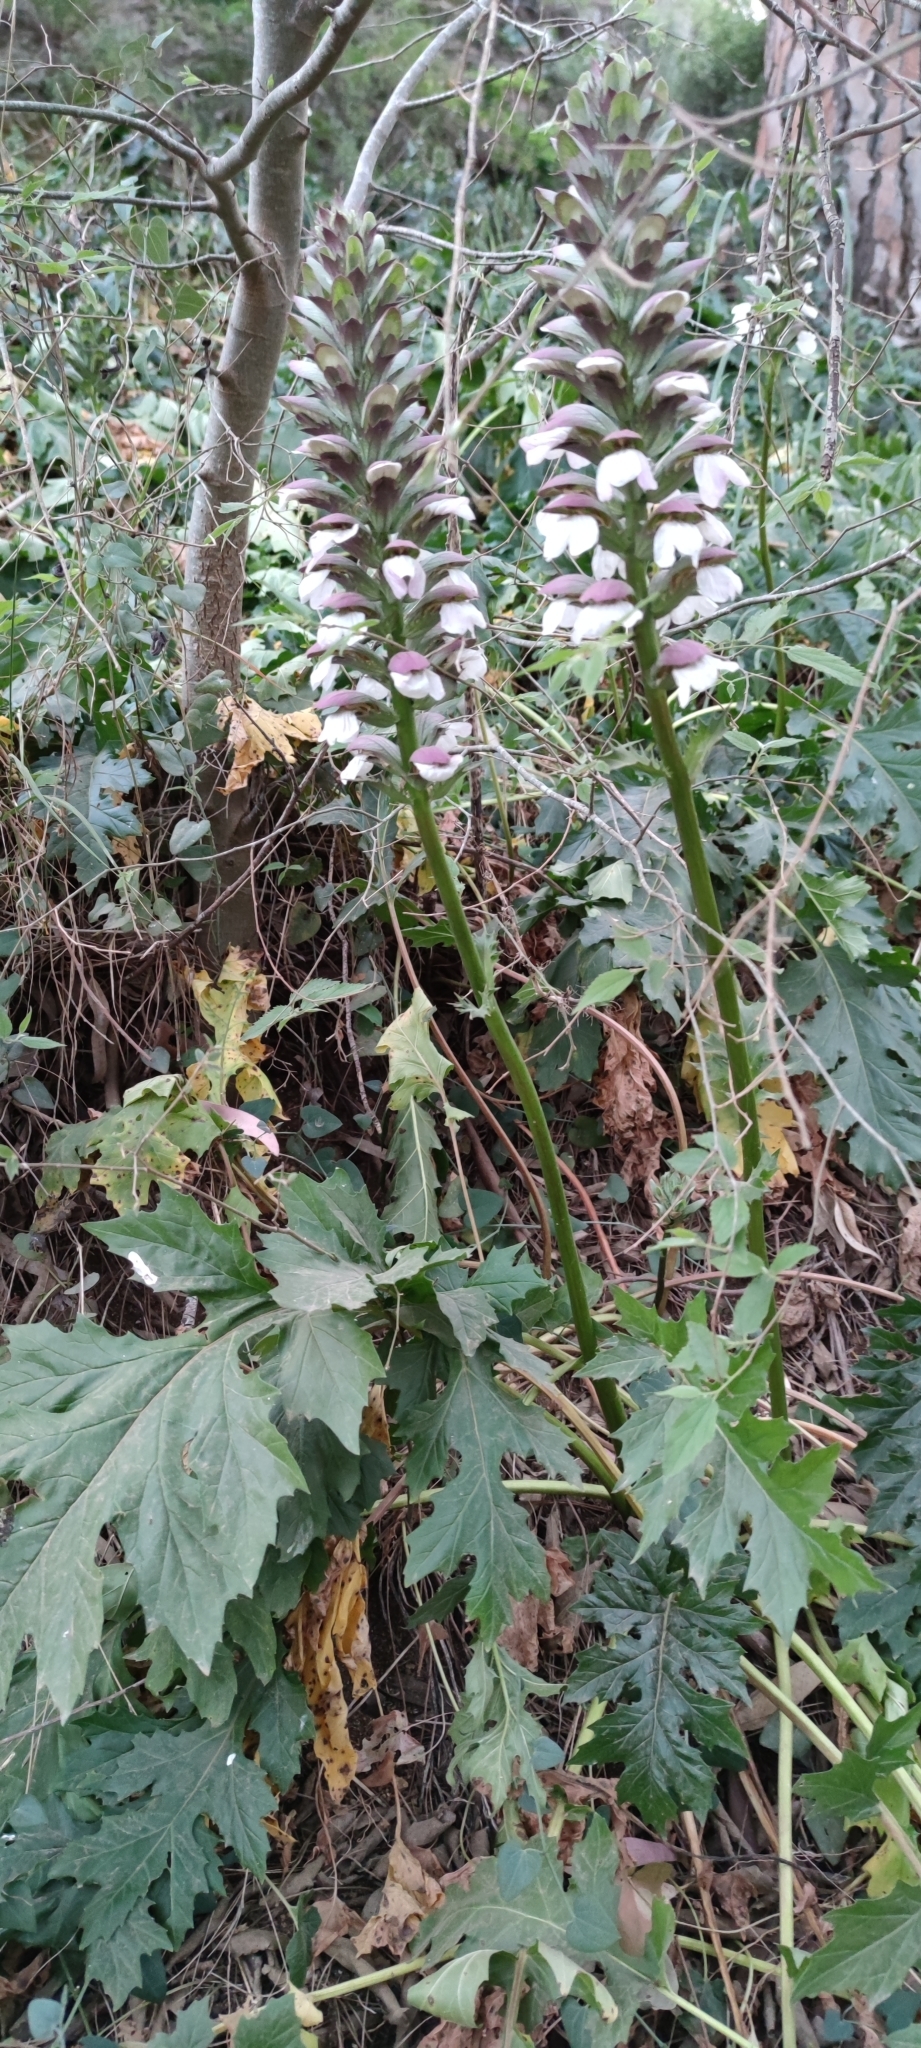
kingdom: Plantae
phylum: Tracheophyta
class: Magnoliopsida
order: Lamiales
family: Acanthaceae
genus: Acanthus
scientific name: Acanthus mollis
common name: Bear's-breech
